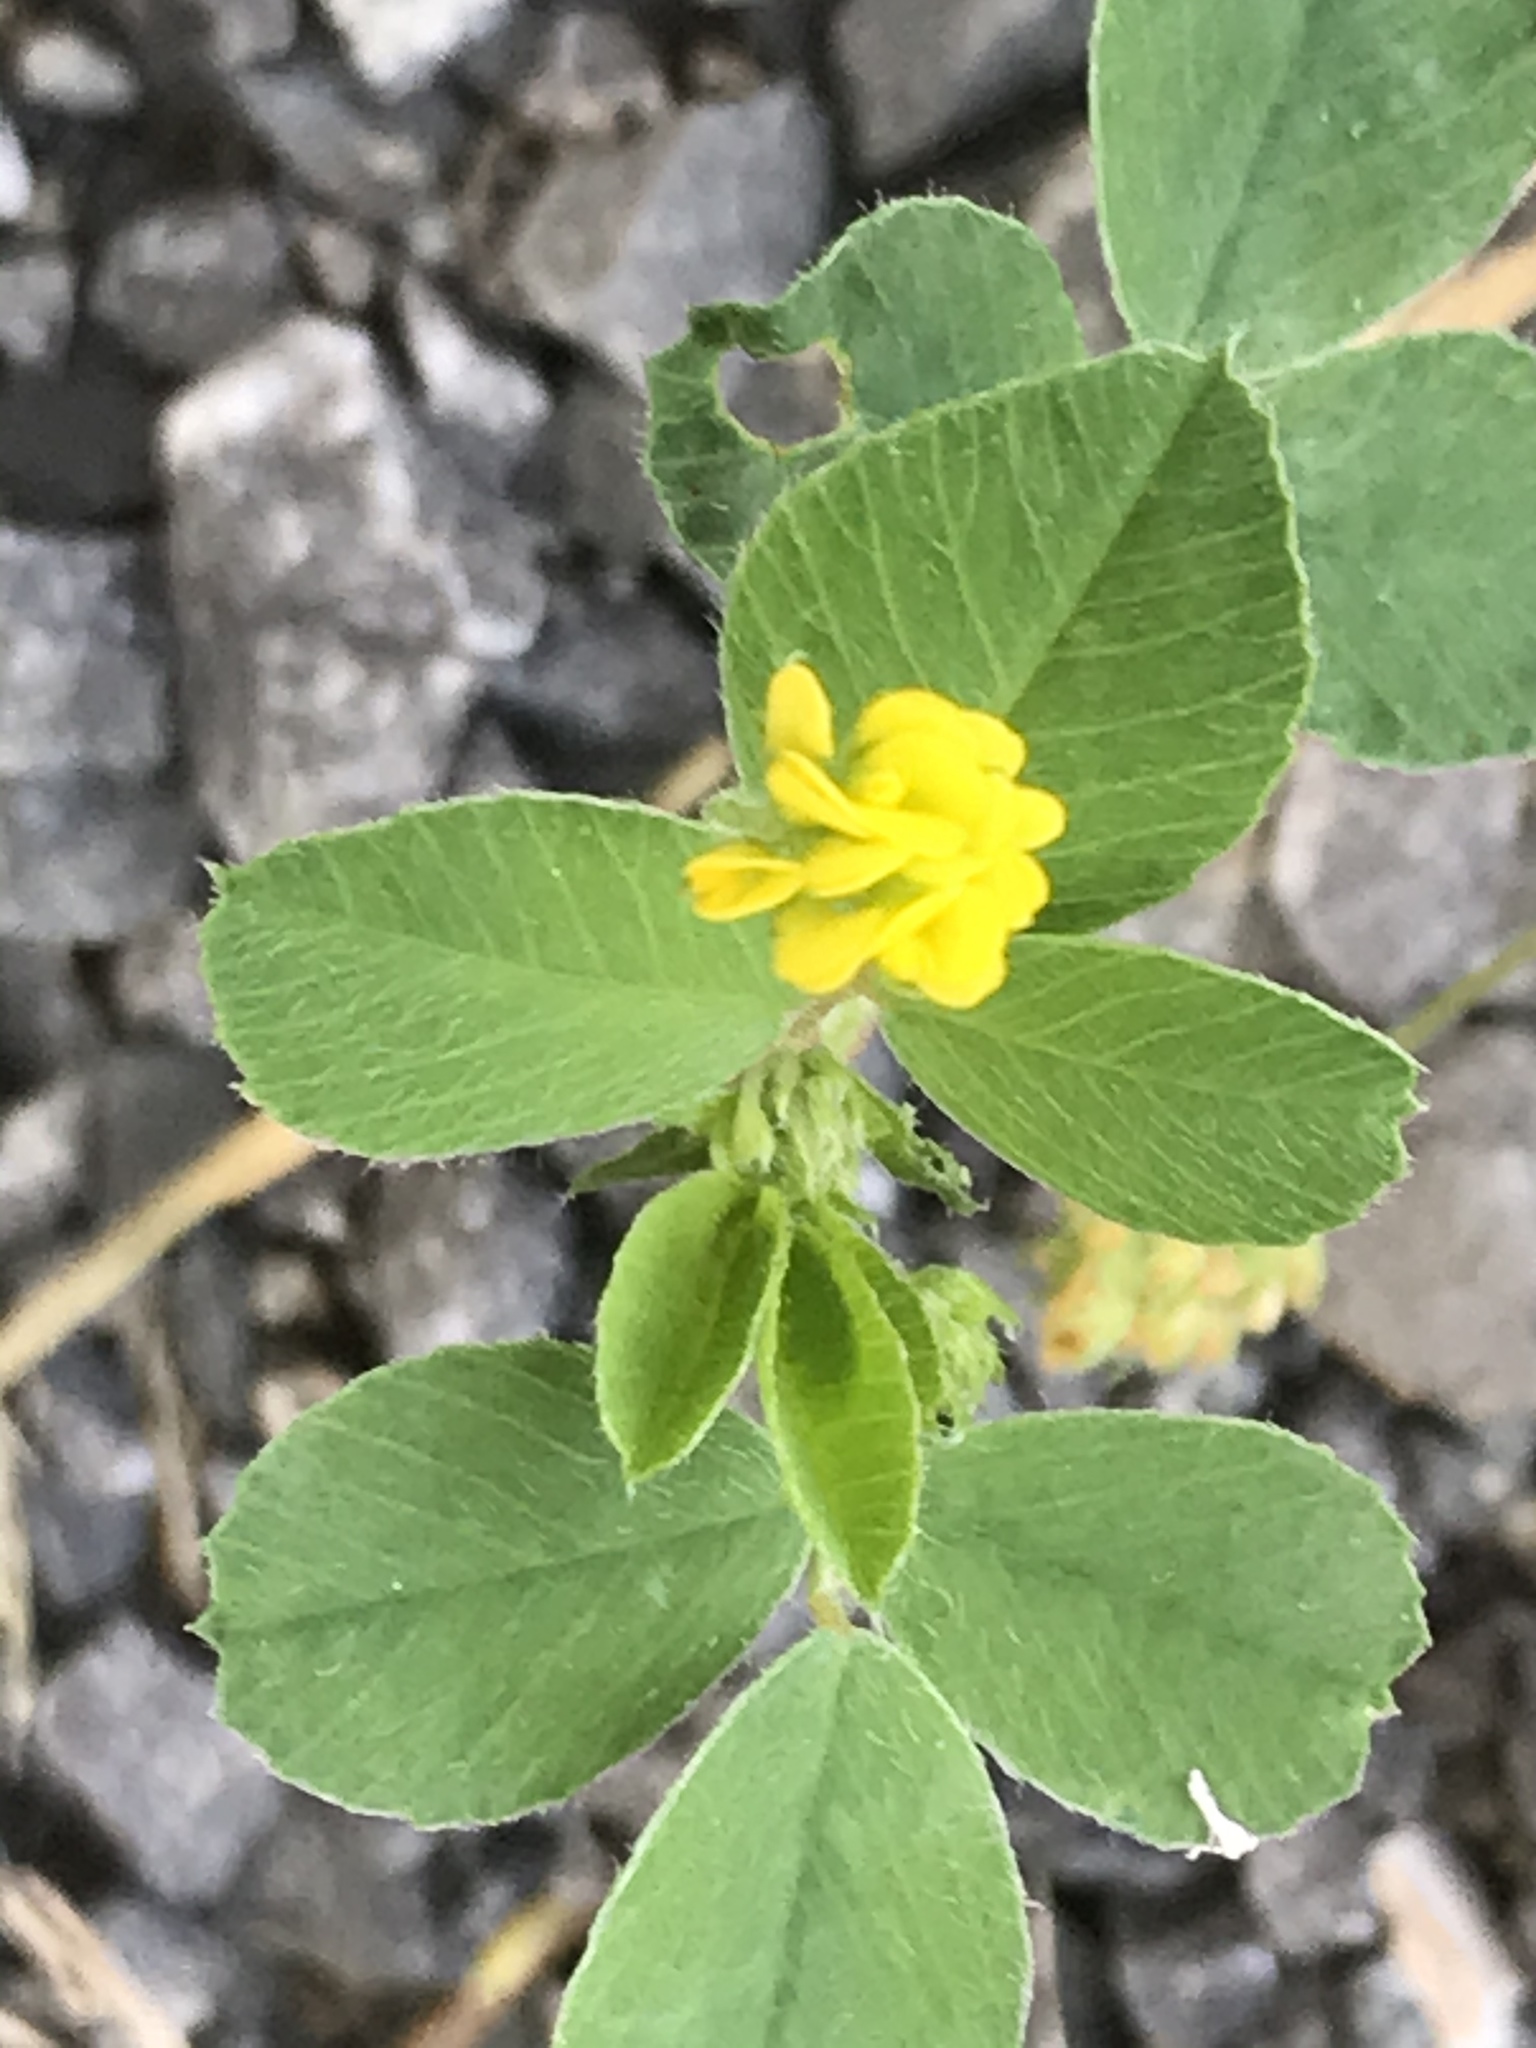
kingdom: Plantae
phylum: Tracheophyta
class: Magnoliopsida
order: Fabales
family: Fabaceae
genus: Medicago
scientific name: Medicago lupulina
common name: Black medick
